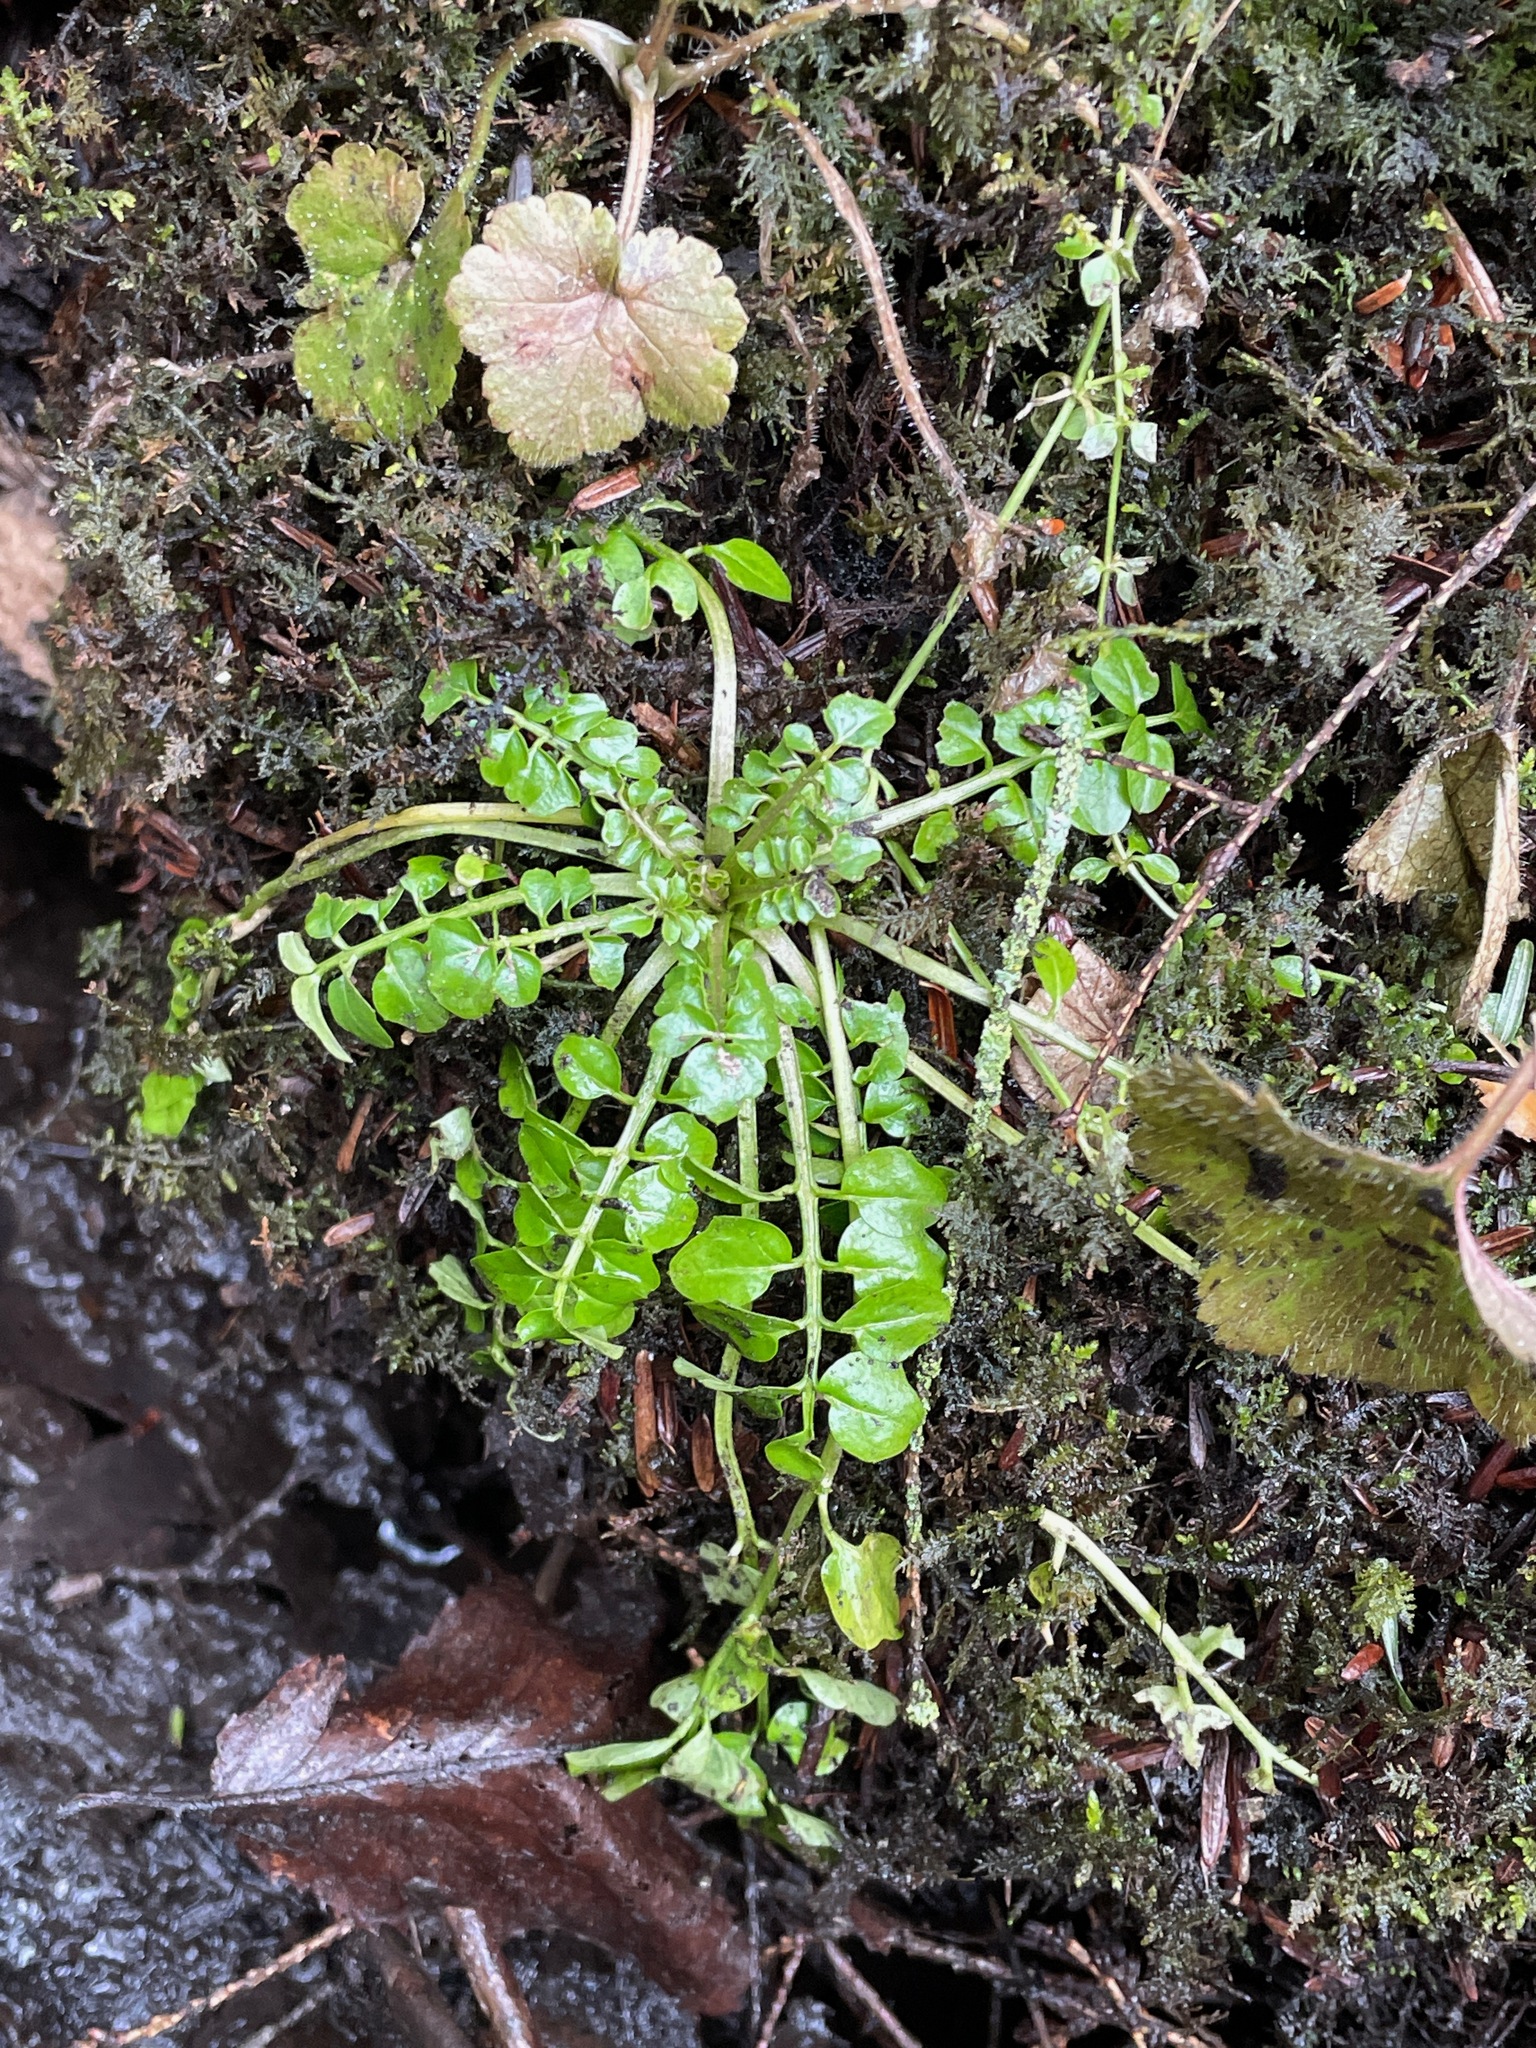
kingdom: Plantae
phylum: Tracheophyta
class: Magnoliopsida
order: Brassicales
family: Brassicaceae
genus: Cardamine
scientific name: Cardamine pensylvanica
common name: Pennsylvania bittercress
